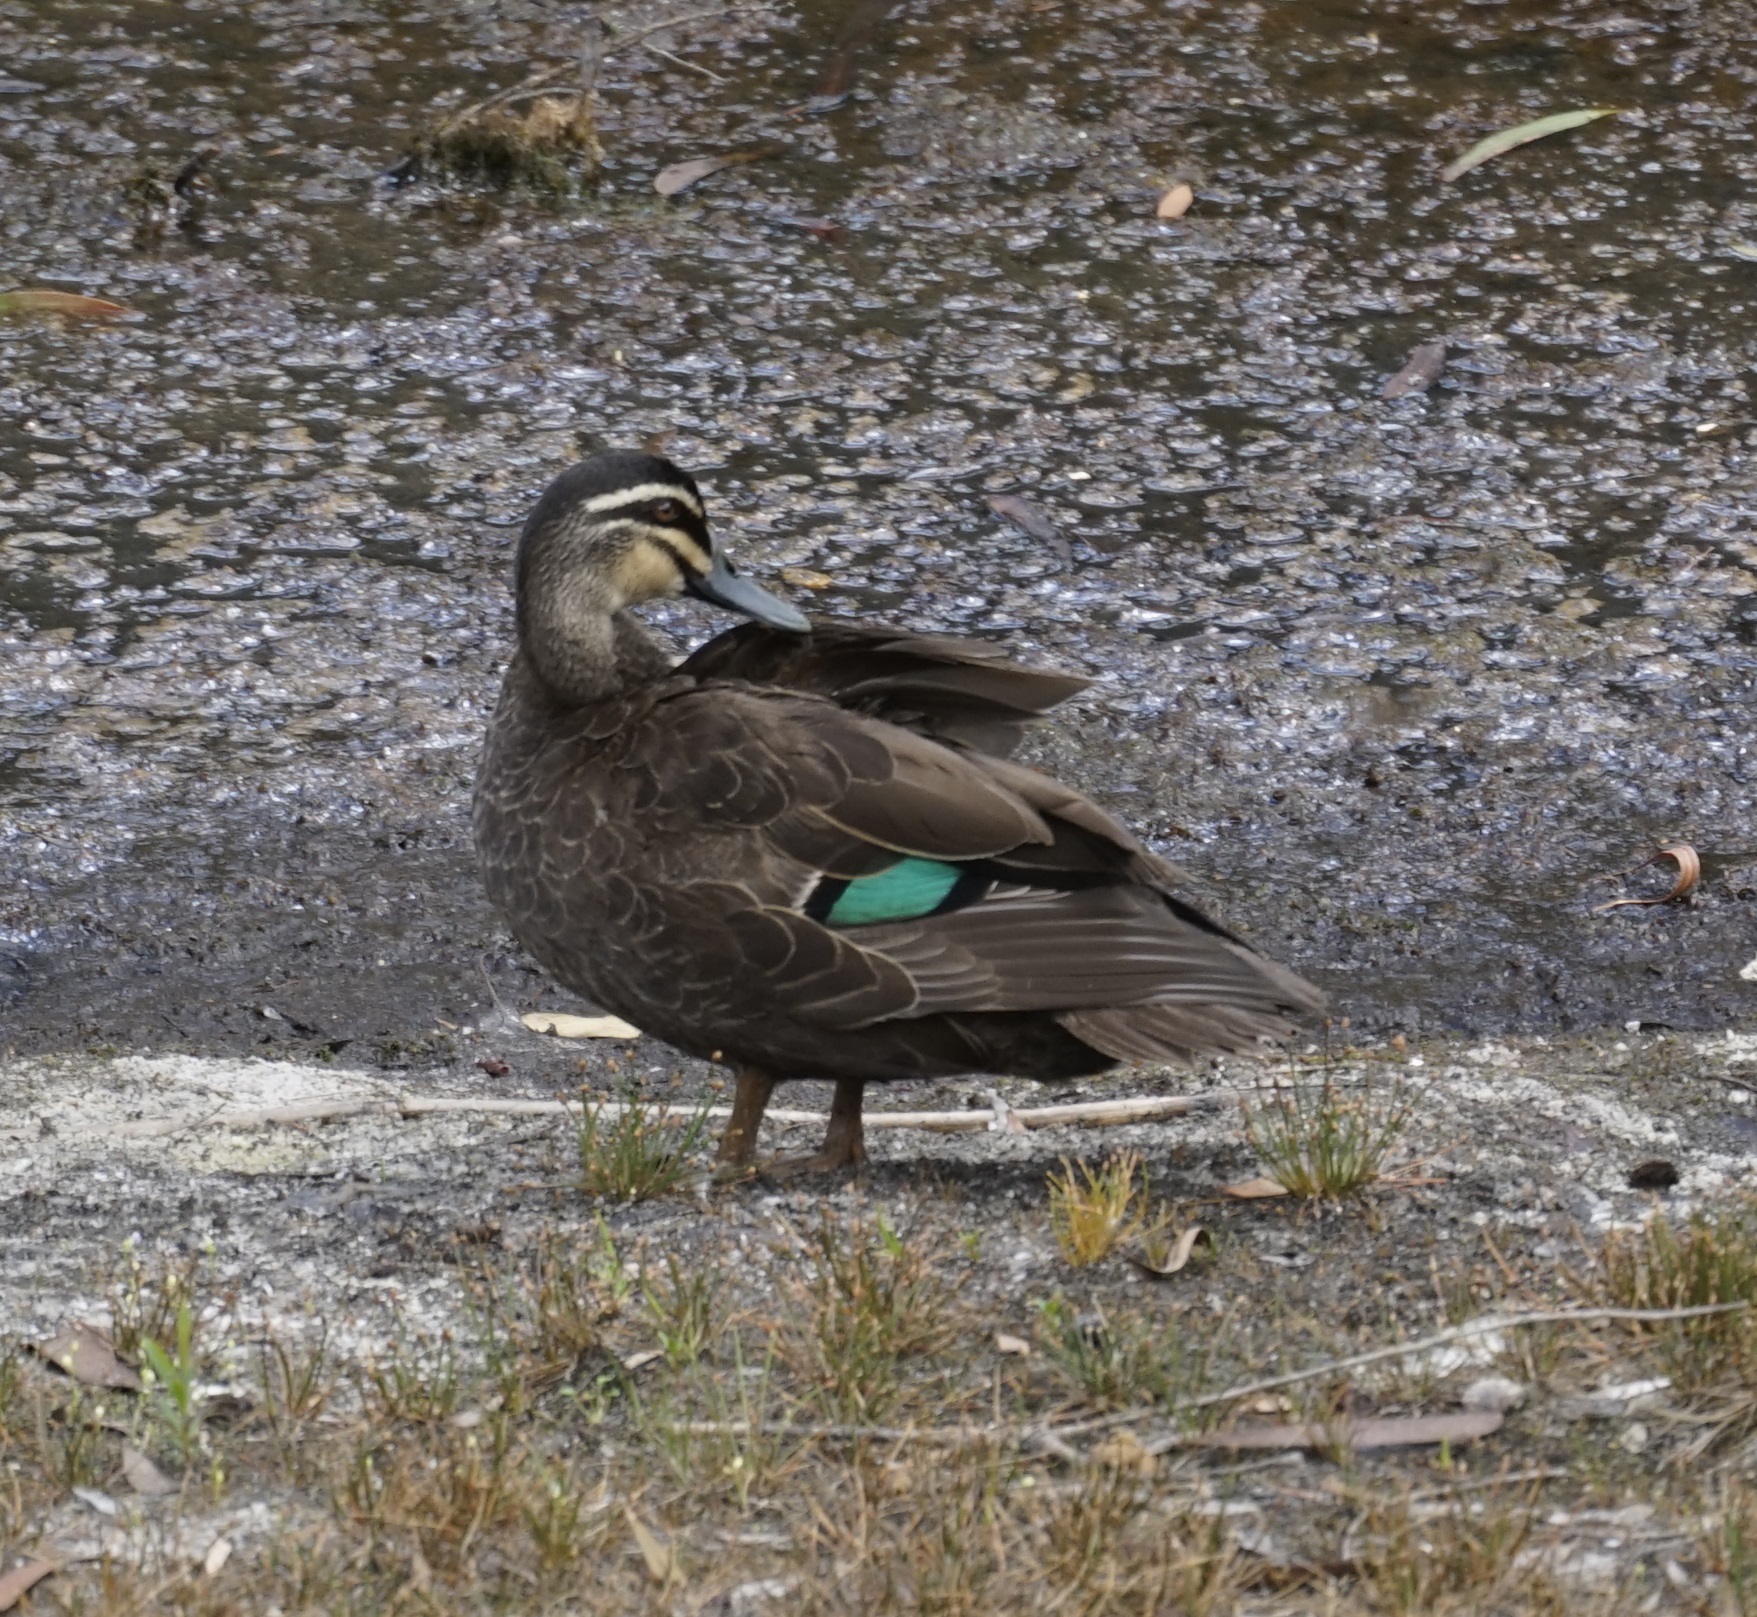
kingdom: Animalia
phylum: Chordata
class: Aves
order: Anseriformes
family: Anatidae
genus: Anas
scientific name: Anas
